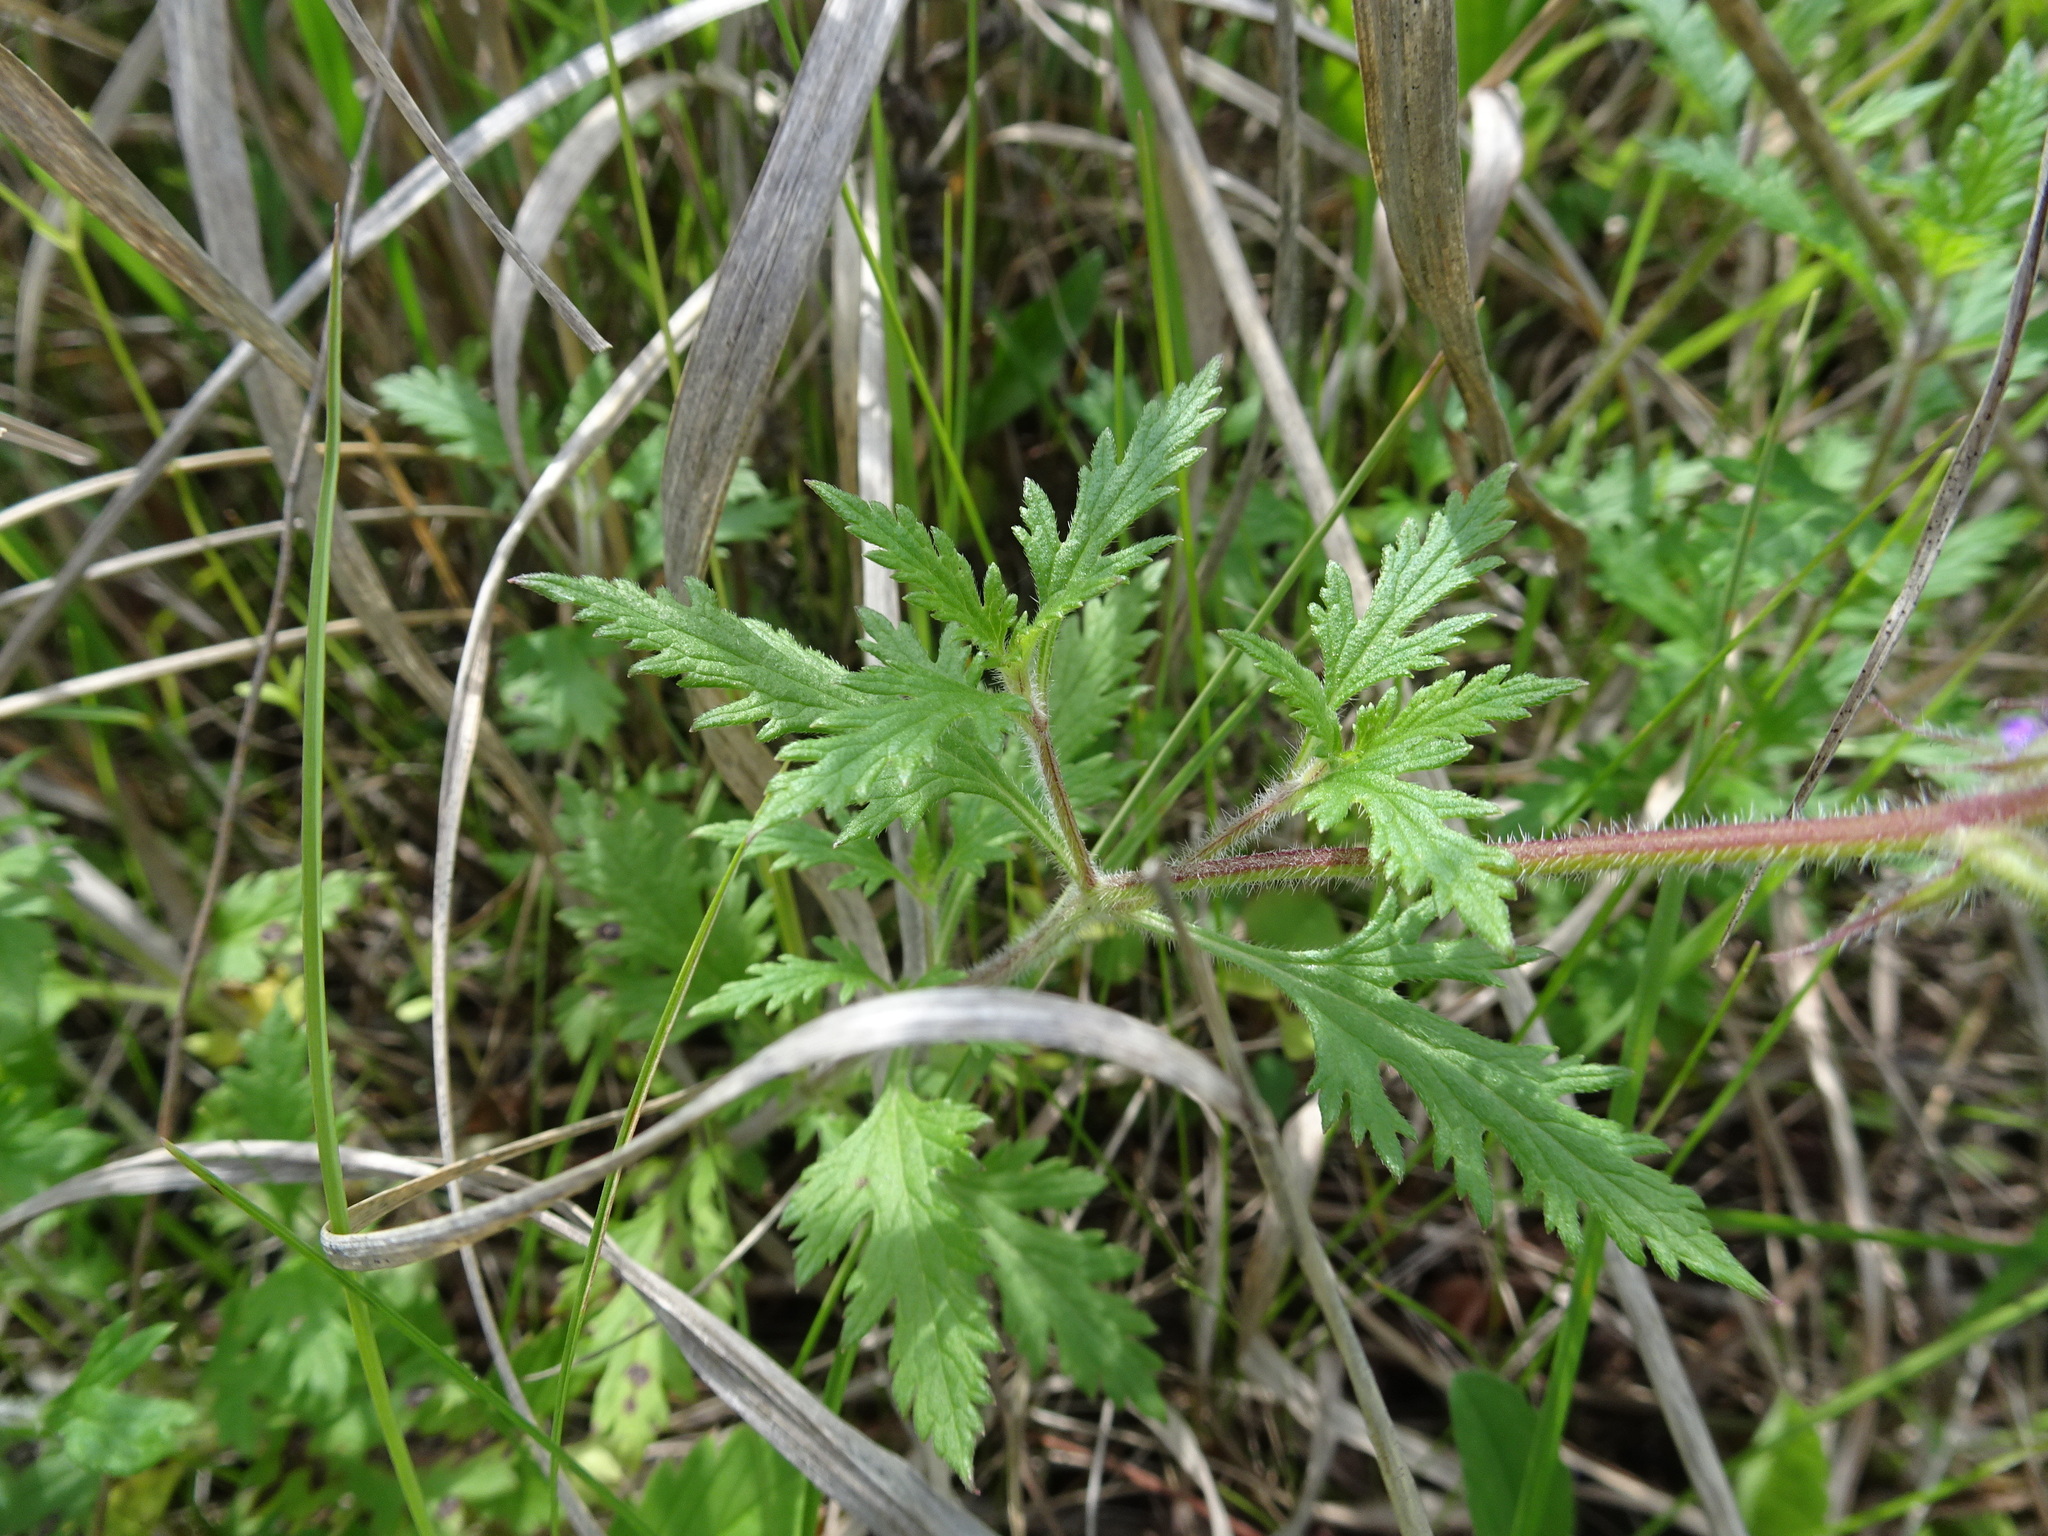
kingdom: Plantae
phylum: Tracheophyta
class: Magnoliopsida
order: Lamiales
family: Verbenaceae
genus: Verbena
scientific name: Verbena canadensis
